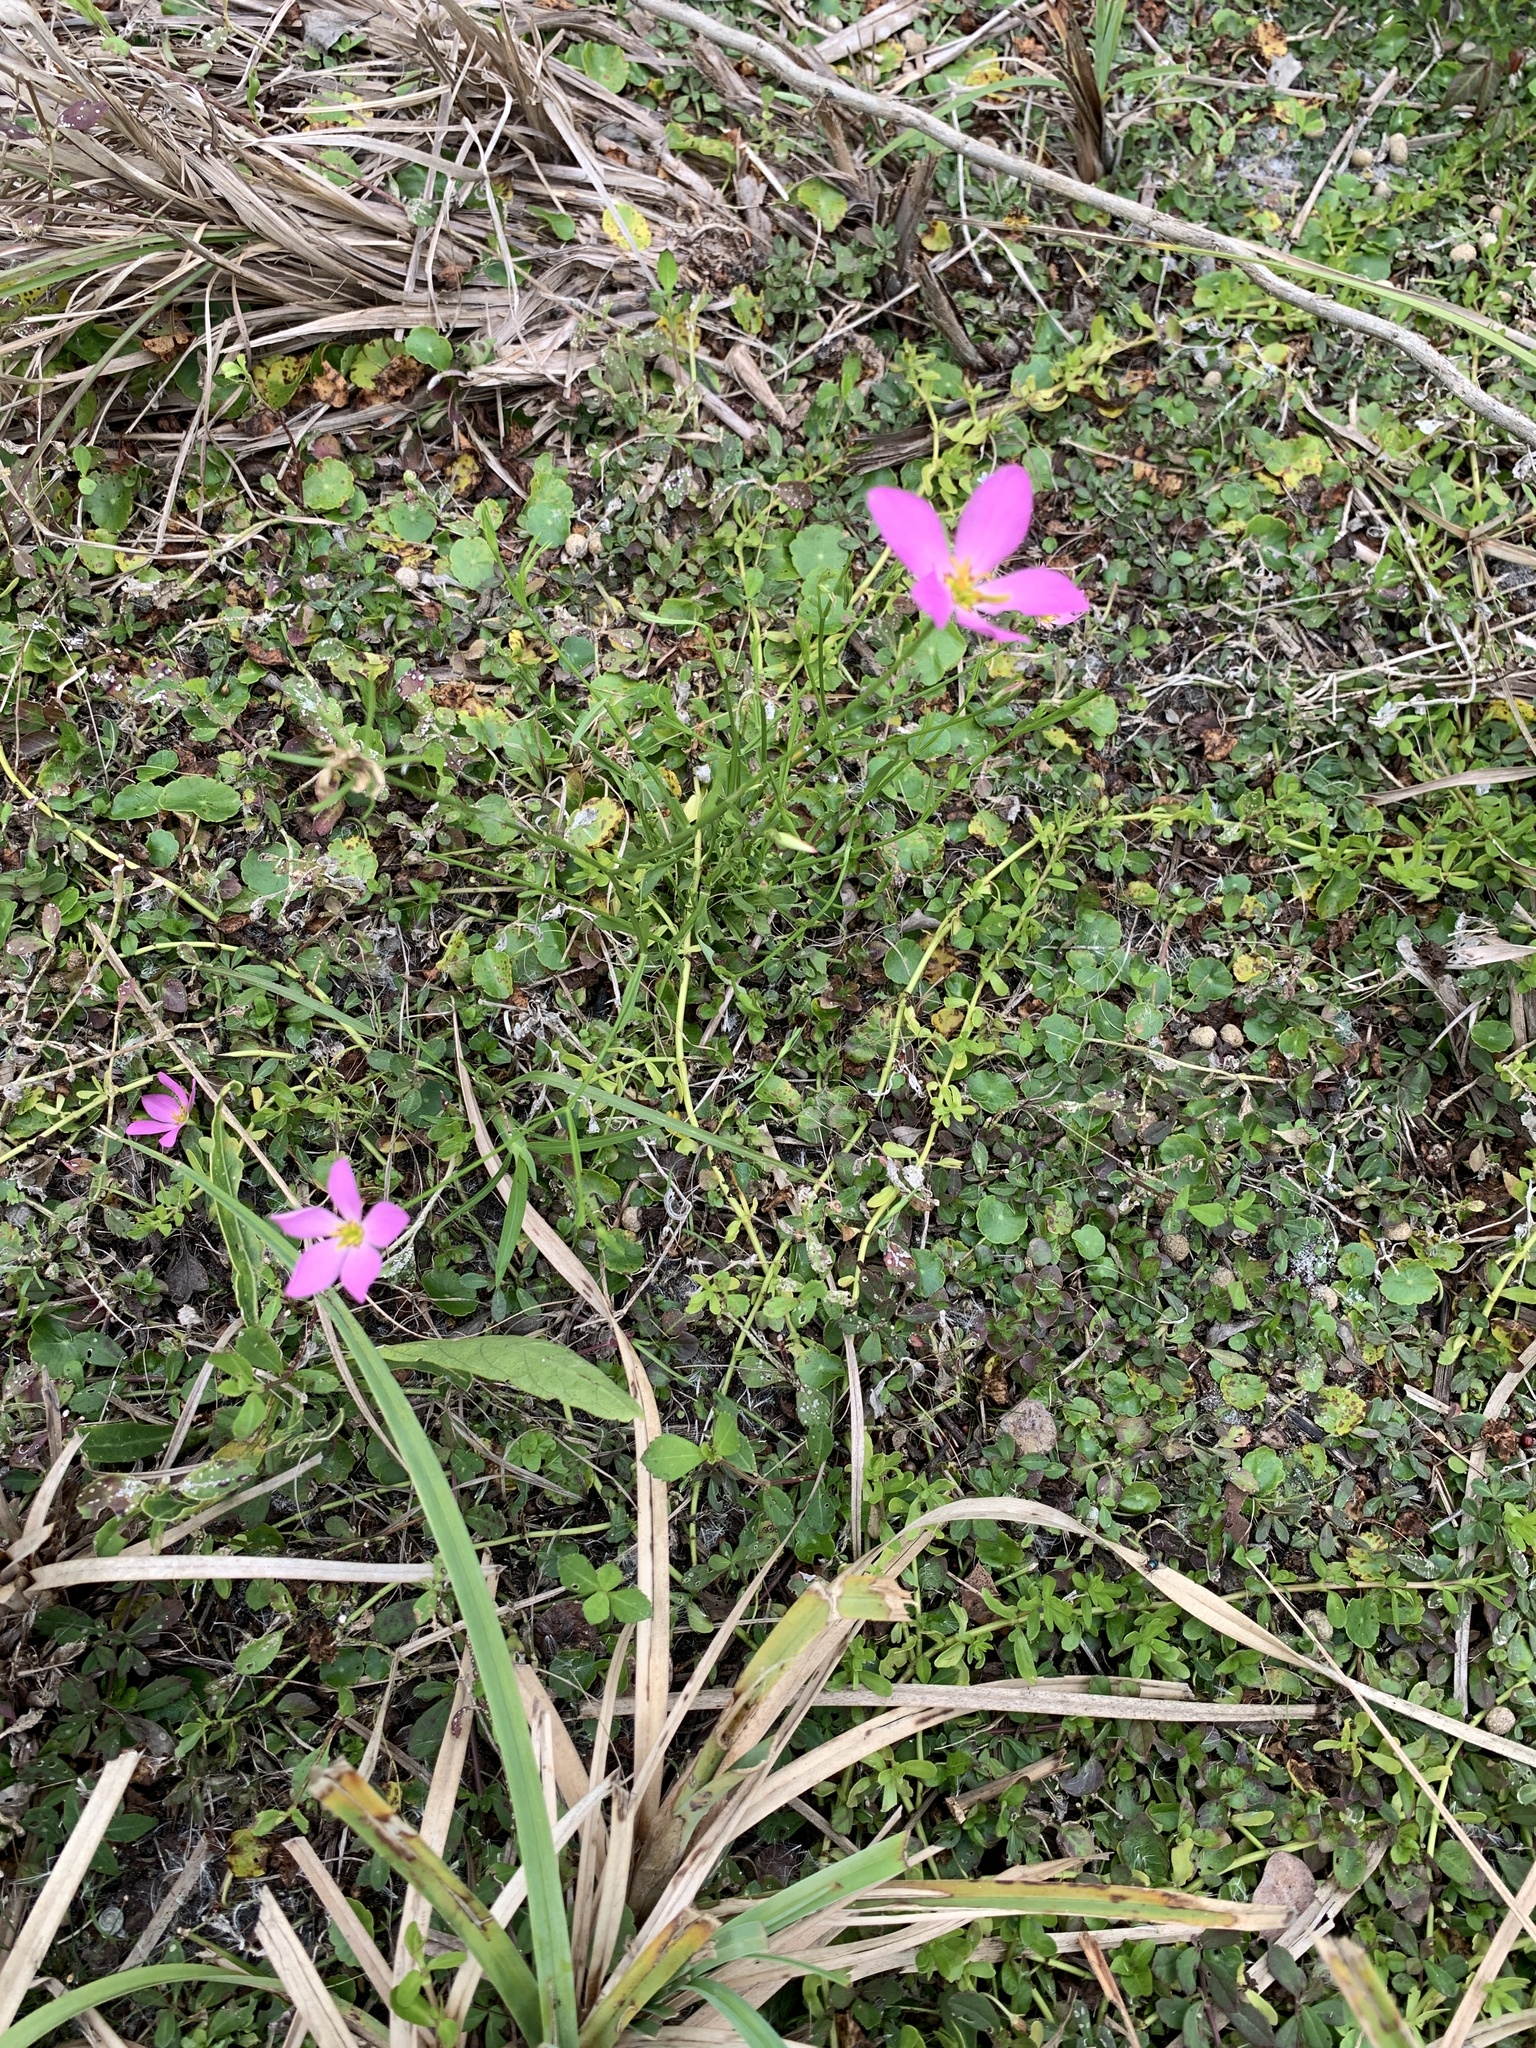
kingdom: Plantae
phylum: Tracheophyta
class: Magnoliopsida
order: Gentianales
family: Gentianaceae
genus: Sabatia
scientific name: Sabatia stellaris
